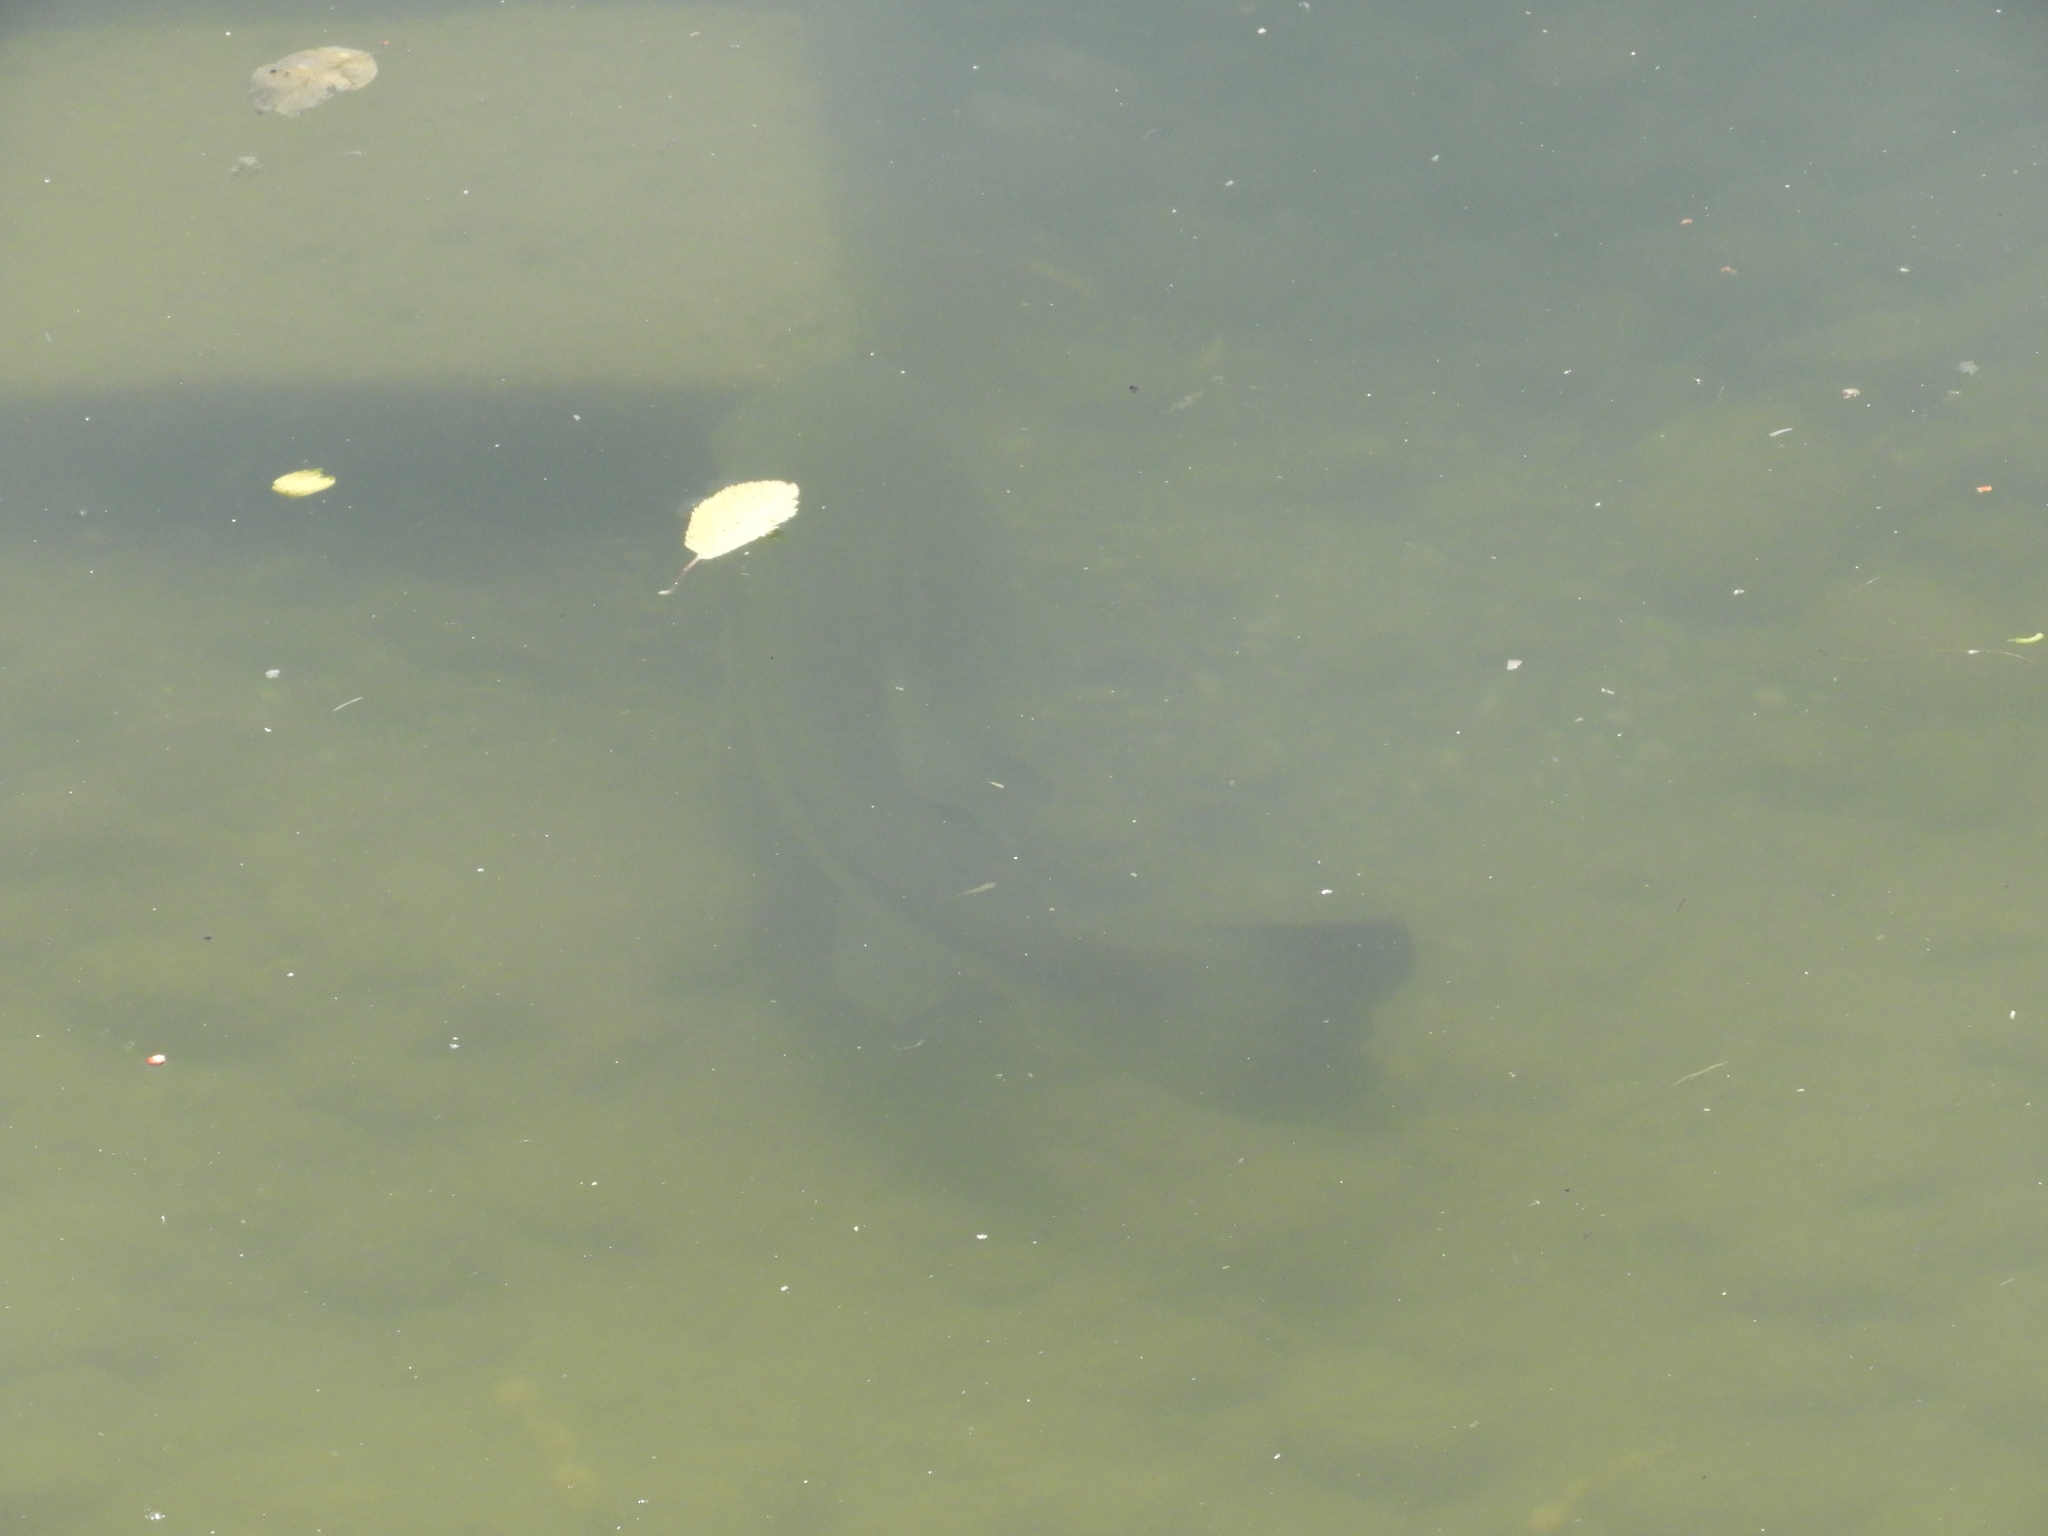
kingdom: Animalia
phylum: Chordata
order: Perciformes
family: Centrarchidae
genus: Micropterus
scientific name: Micropterus
